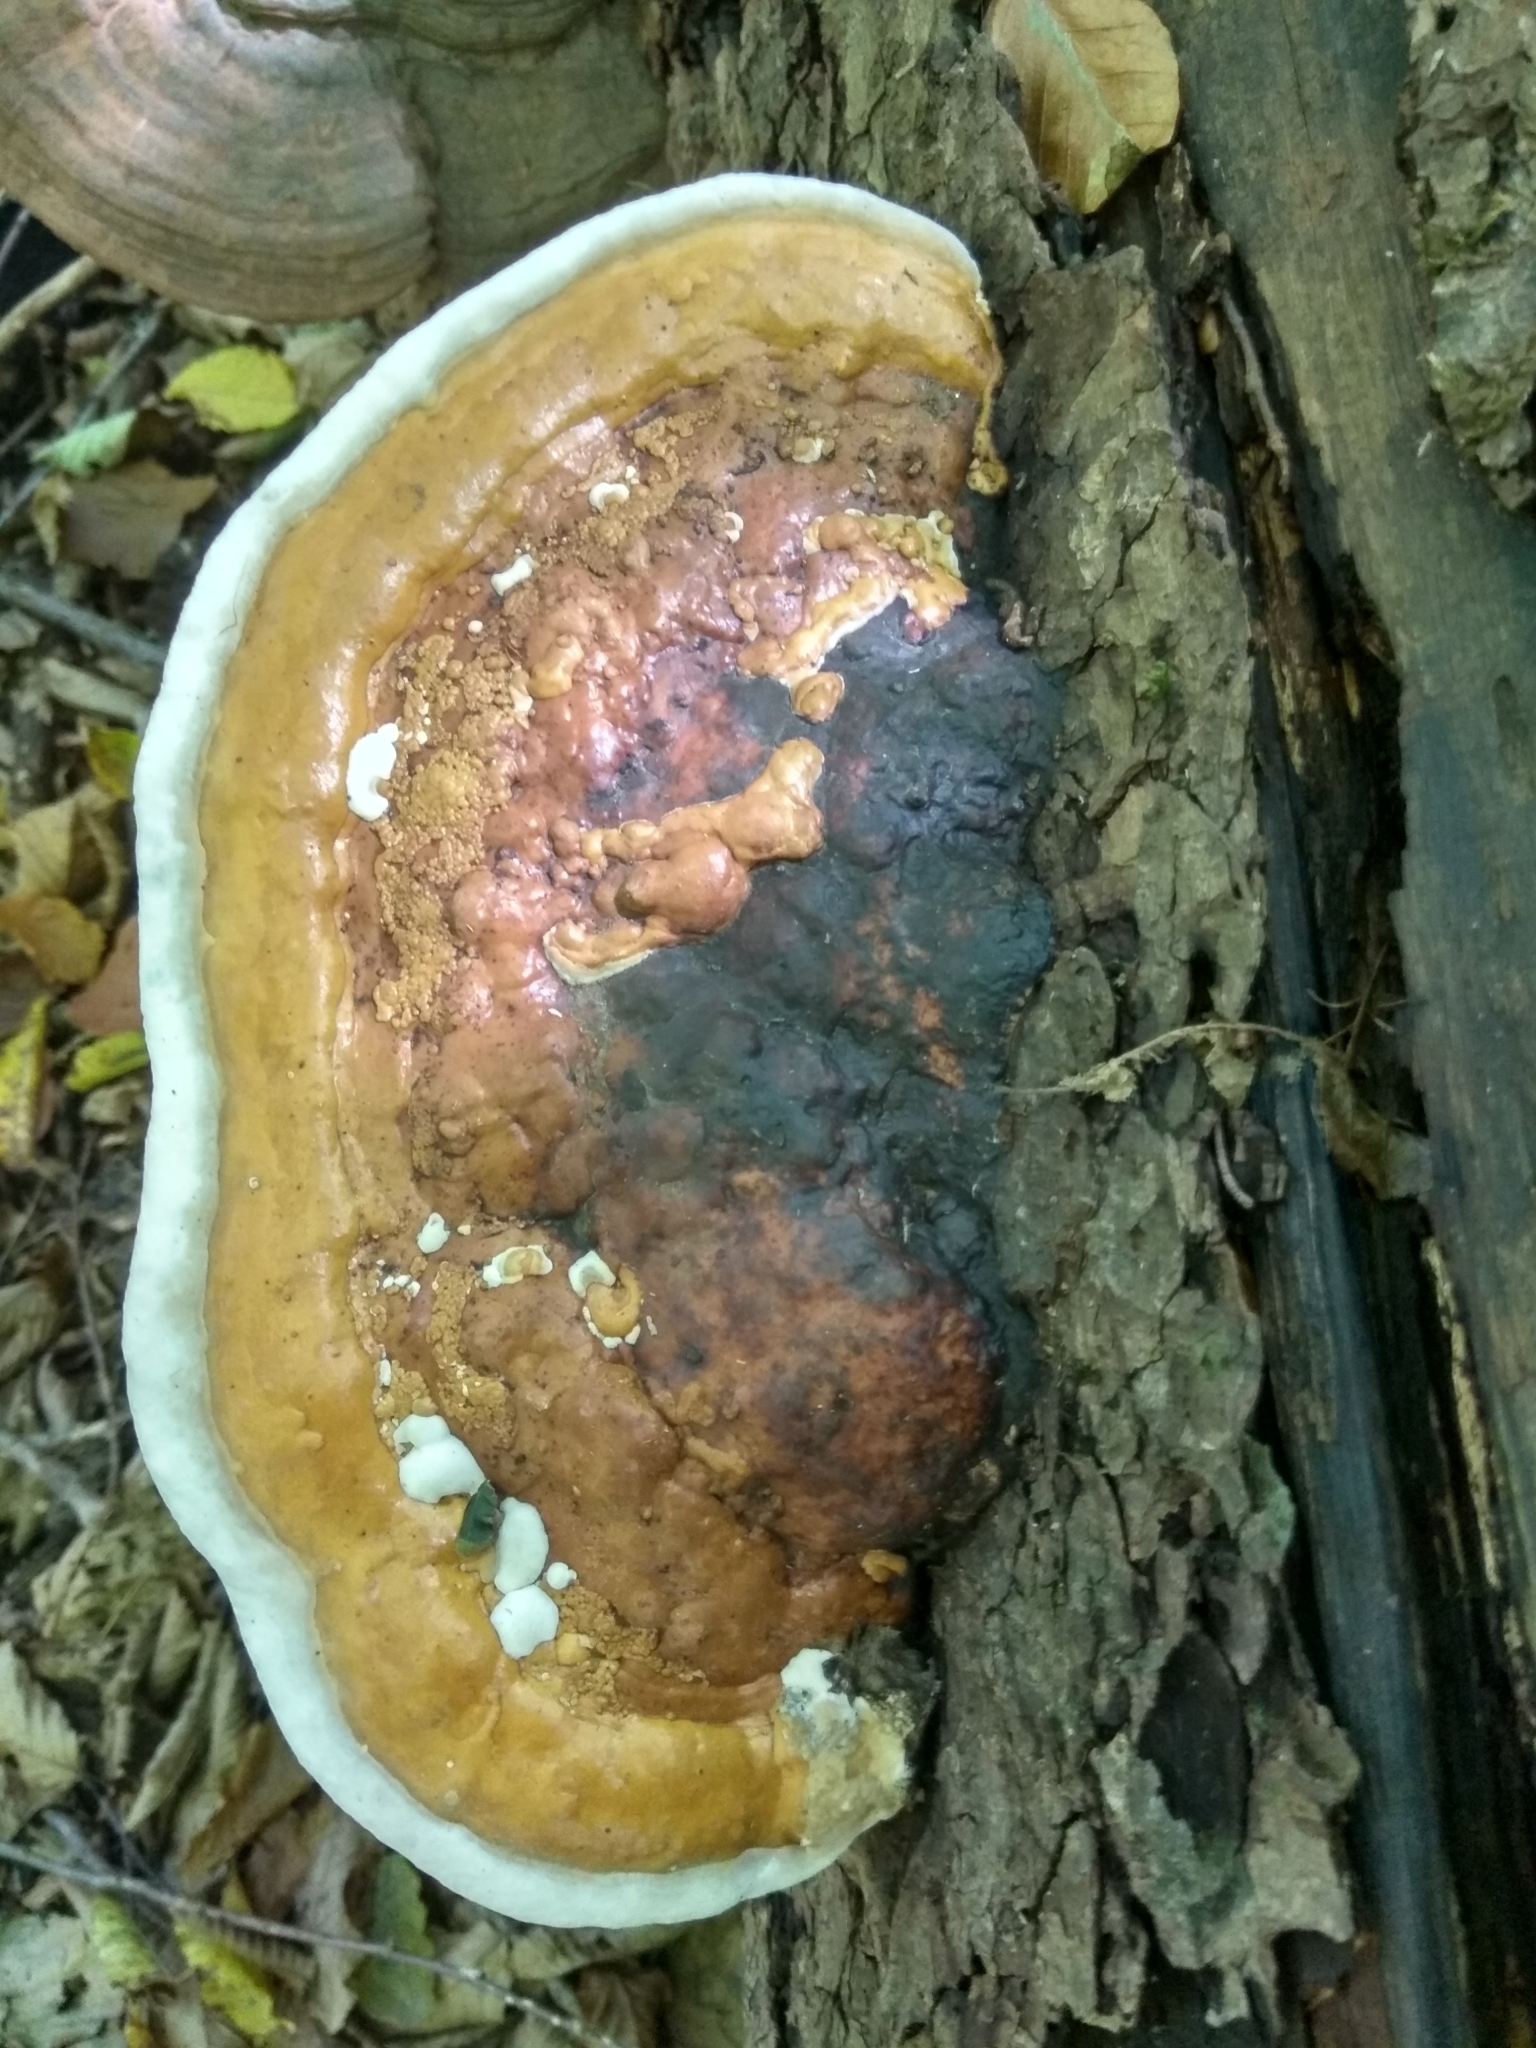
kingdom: Fungi
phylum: Basidiomycota
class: Agaricomycetes
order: Polyporales
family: Fomitopsidaceae
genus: Fomitopsis
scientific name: Fomitopsis pinicola
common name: Red-belted bracket
